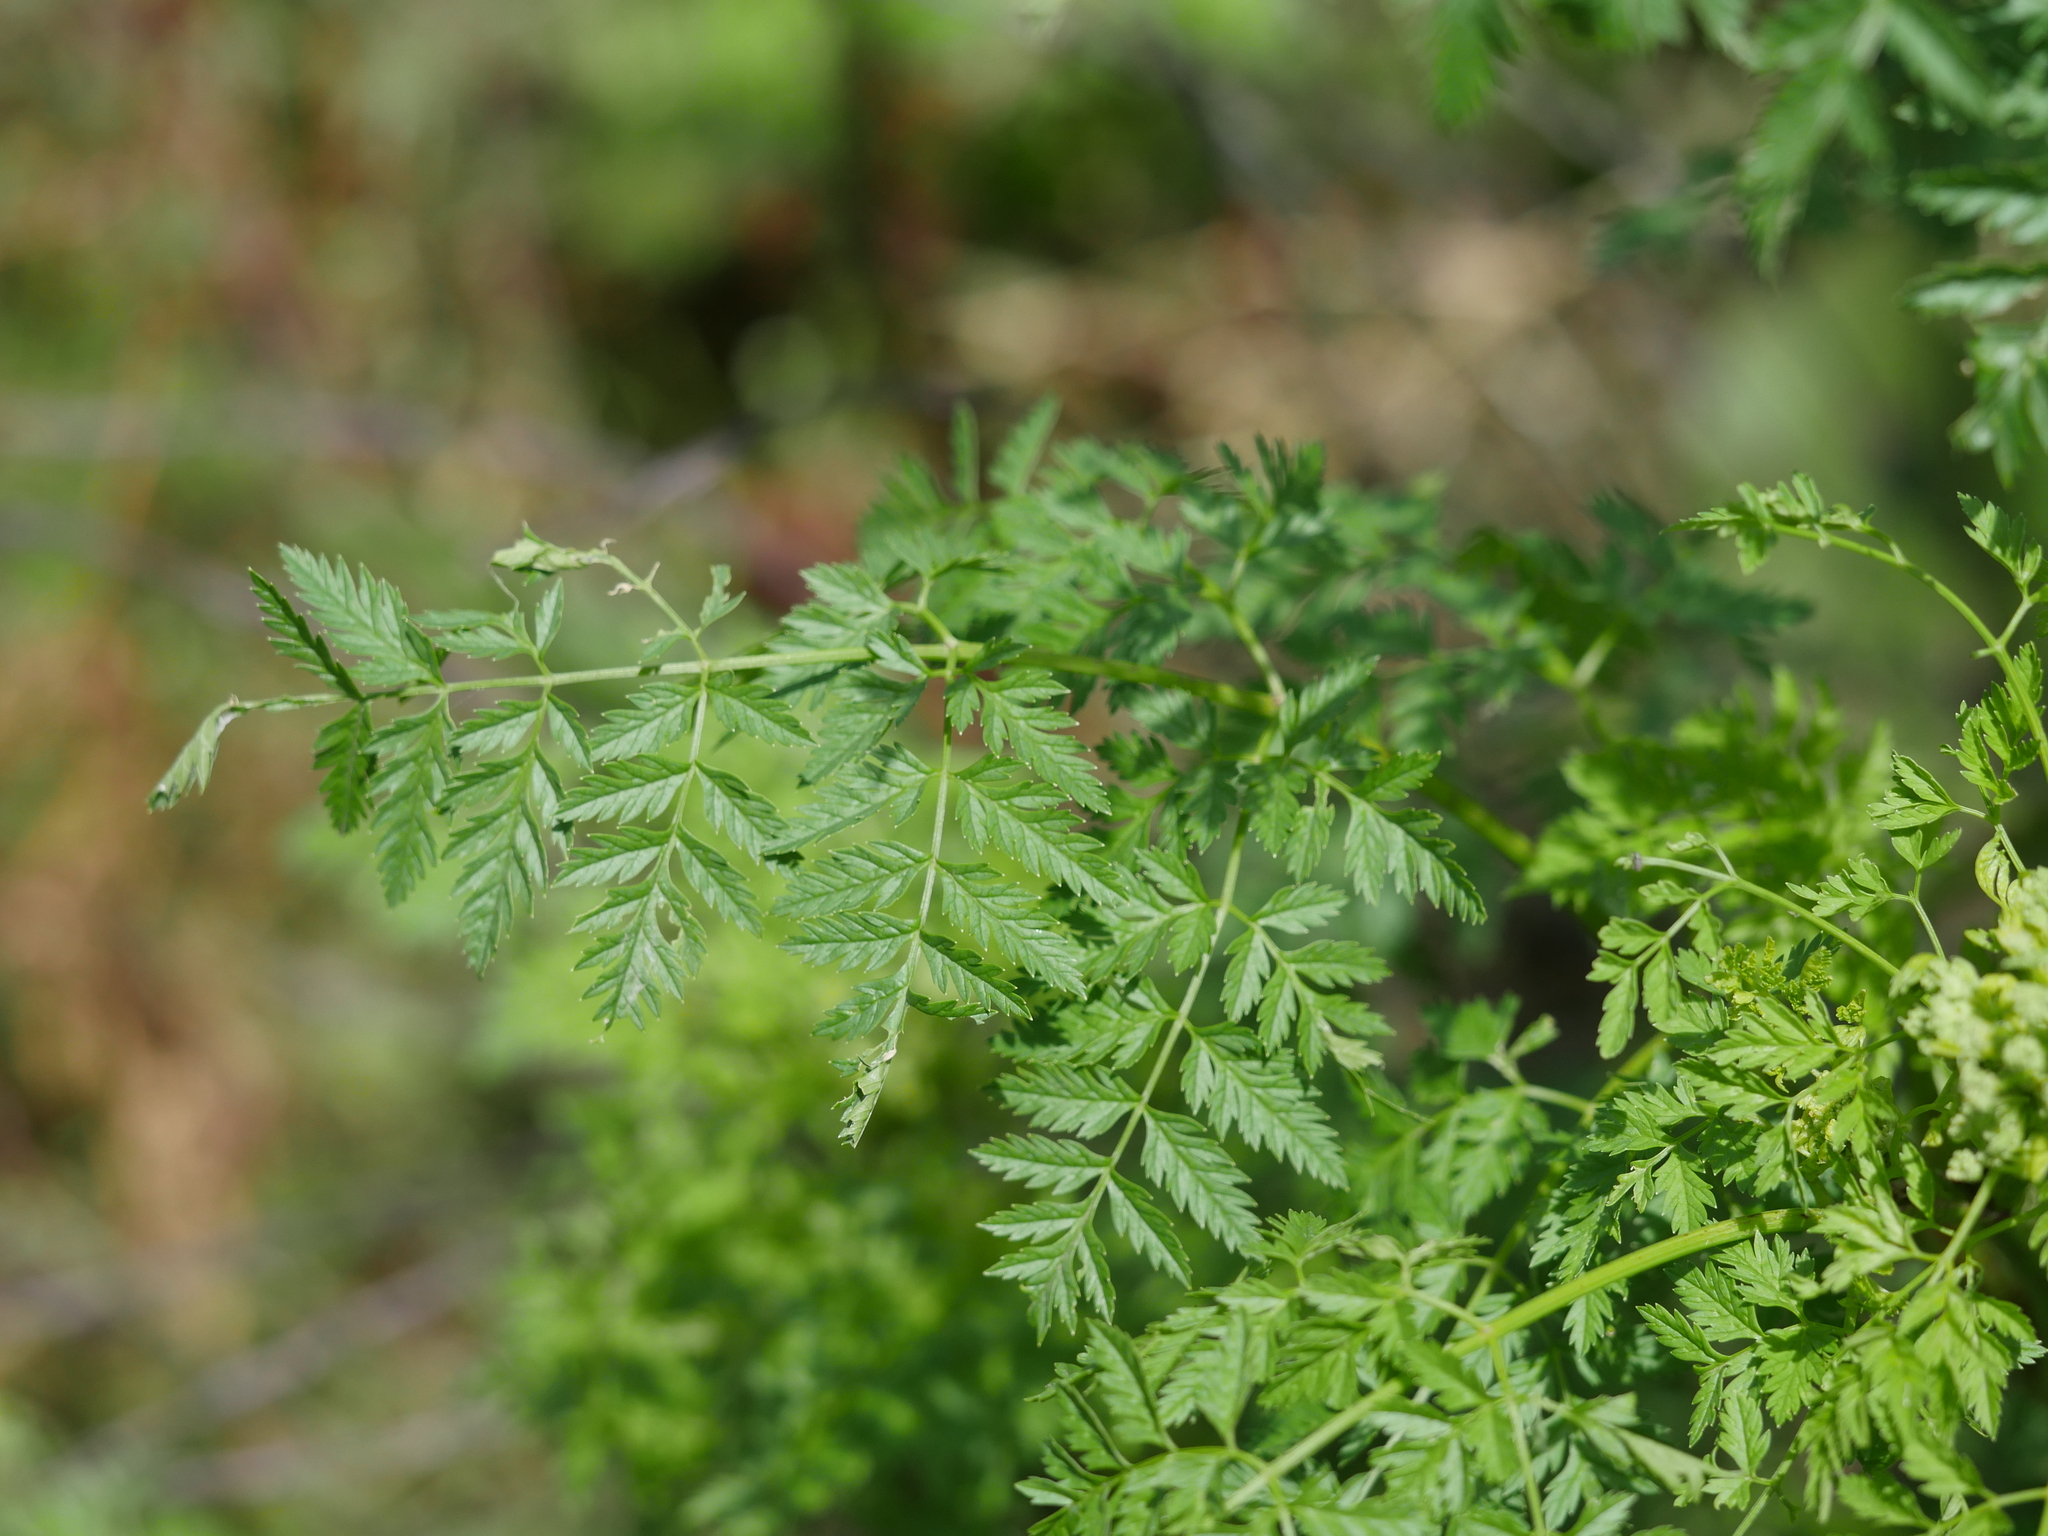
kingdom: Plantae
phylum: Tracheophyta
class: Magnoliopsida
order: Apiales
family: Apiaceae
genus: Conium
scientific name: Conium maculatum
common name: Hemlock
